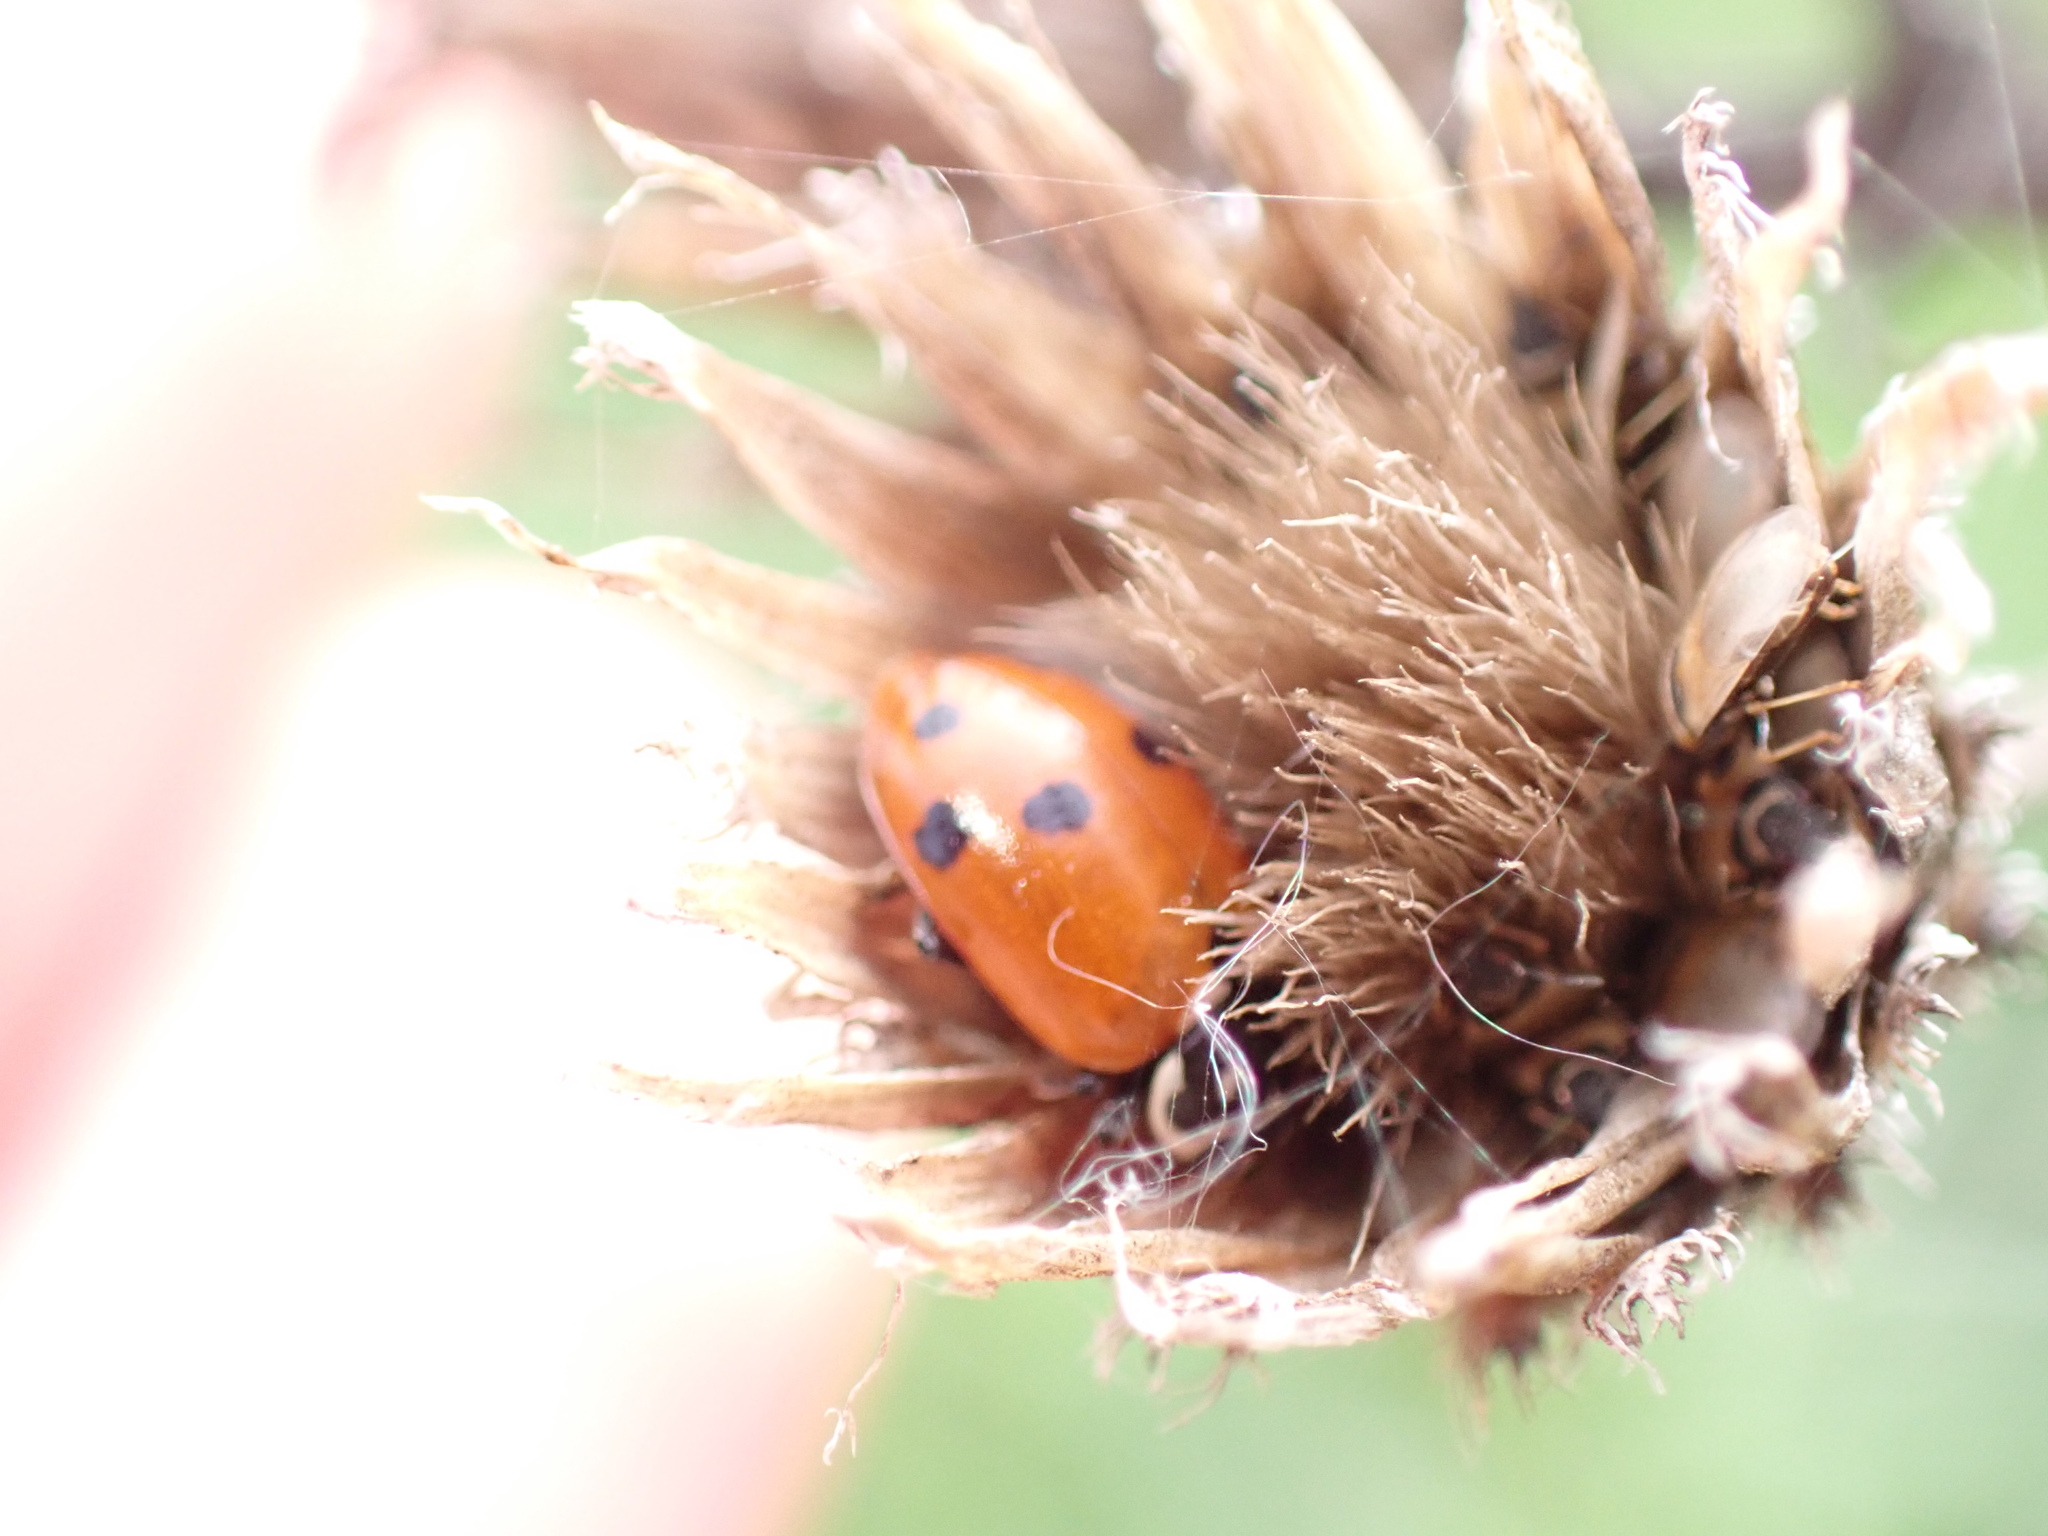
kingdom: Animalia
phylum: Arthropoda
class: Insecta
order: Coleoptera
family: Coccinellidae
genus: Hippodamia
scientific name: Hippodamia variegata
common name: Ladybird beetle
